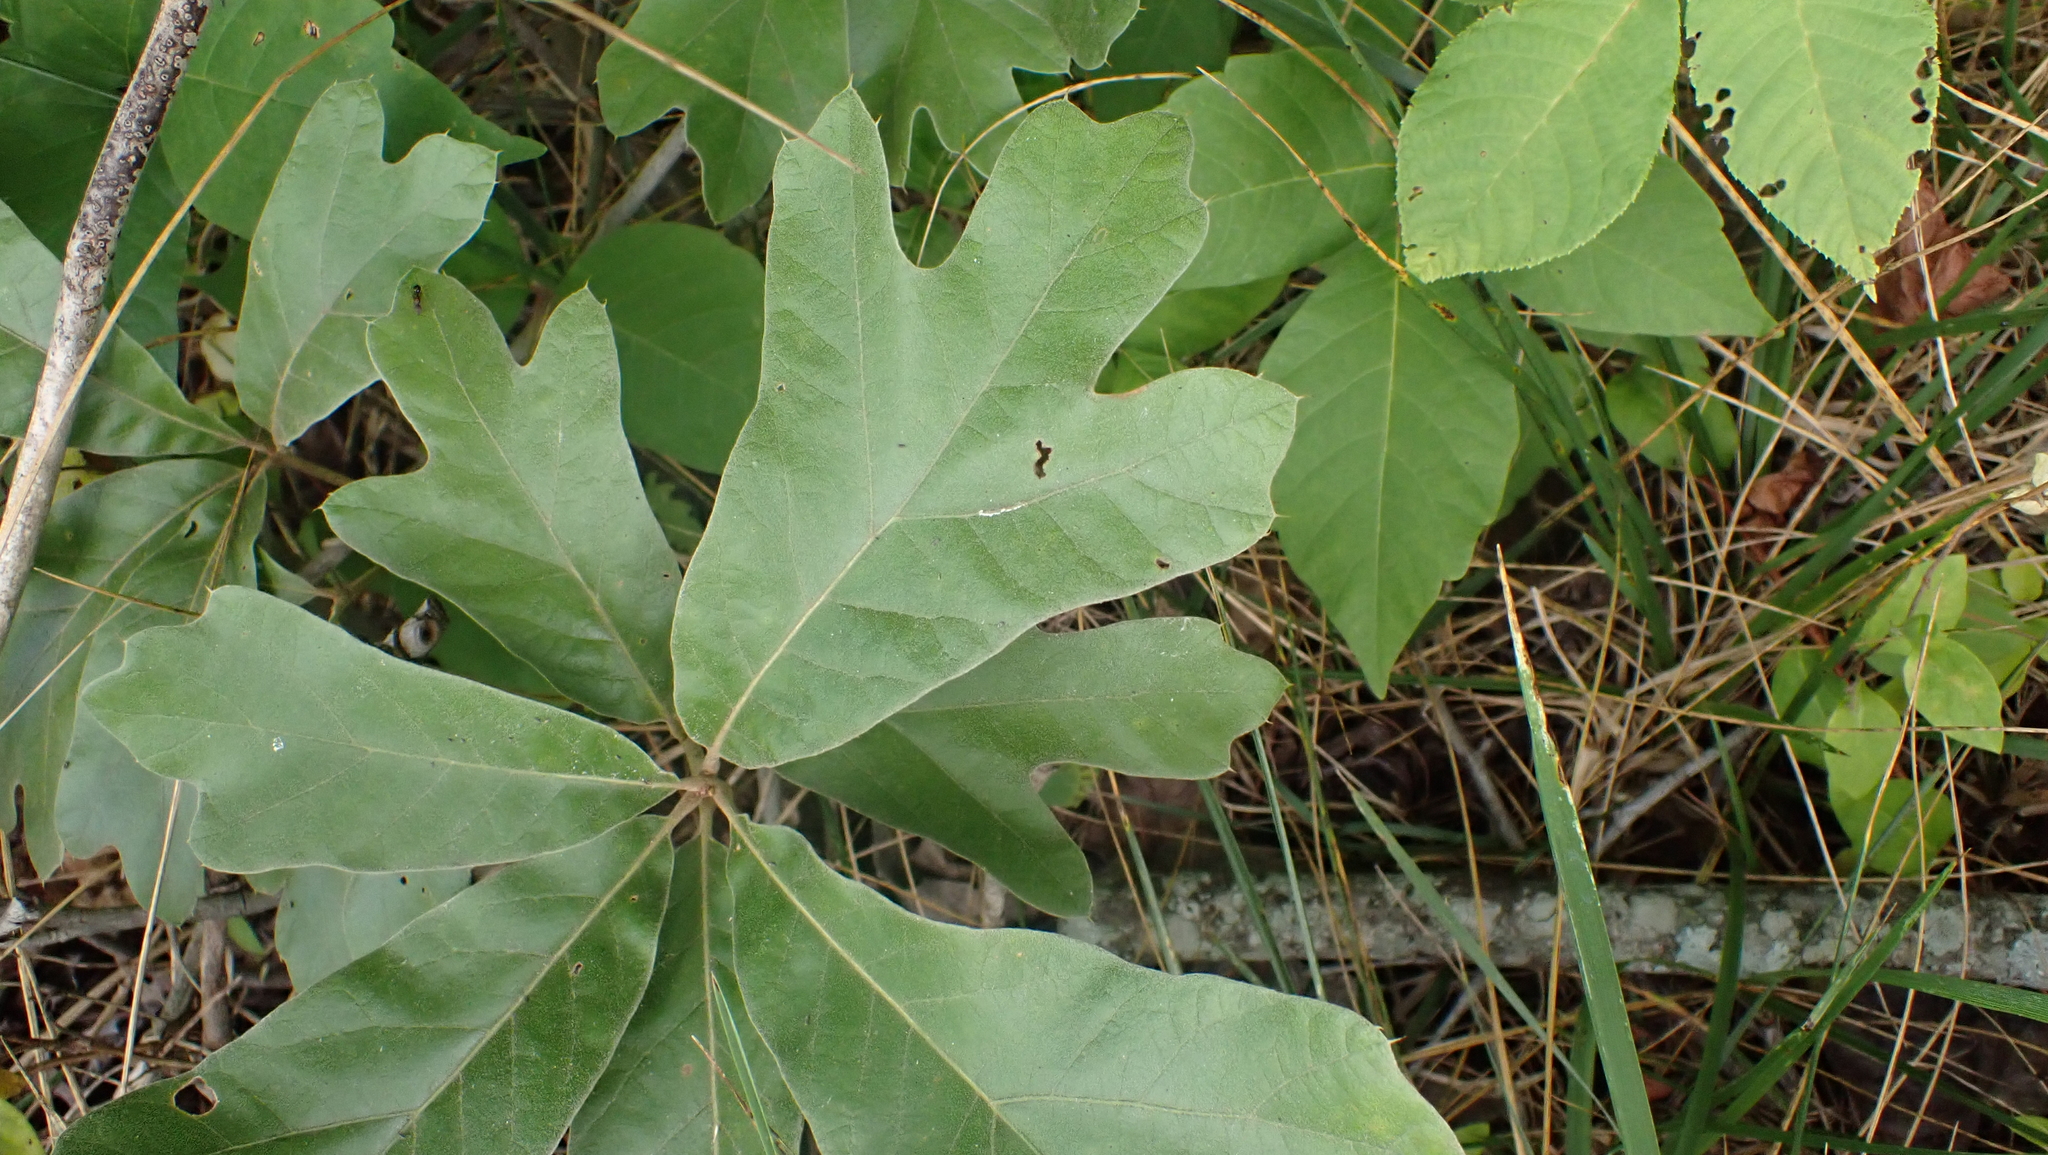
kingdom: Plantae
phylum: Tracheophyta
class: Magnoliopsida
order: Fagales
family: Fagaceae
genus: Quercus
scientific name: Quercus falcata
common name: Southern red oak
